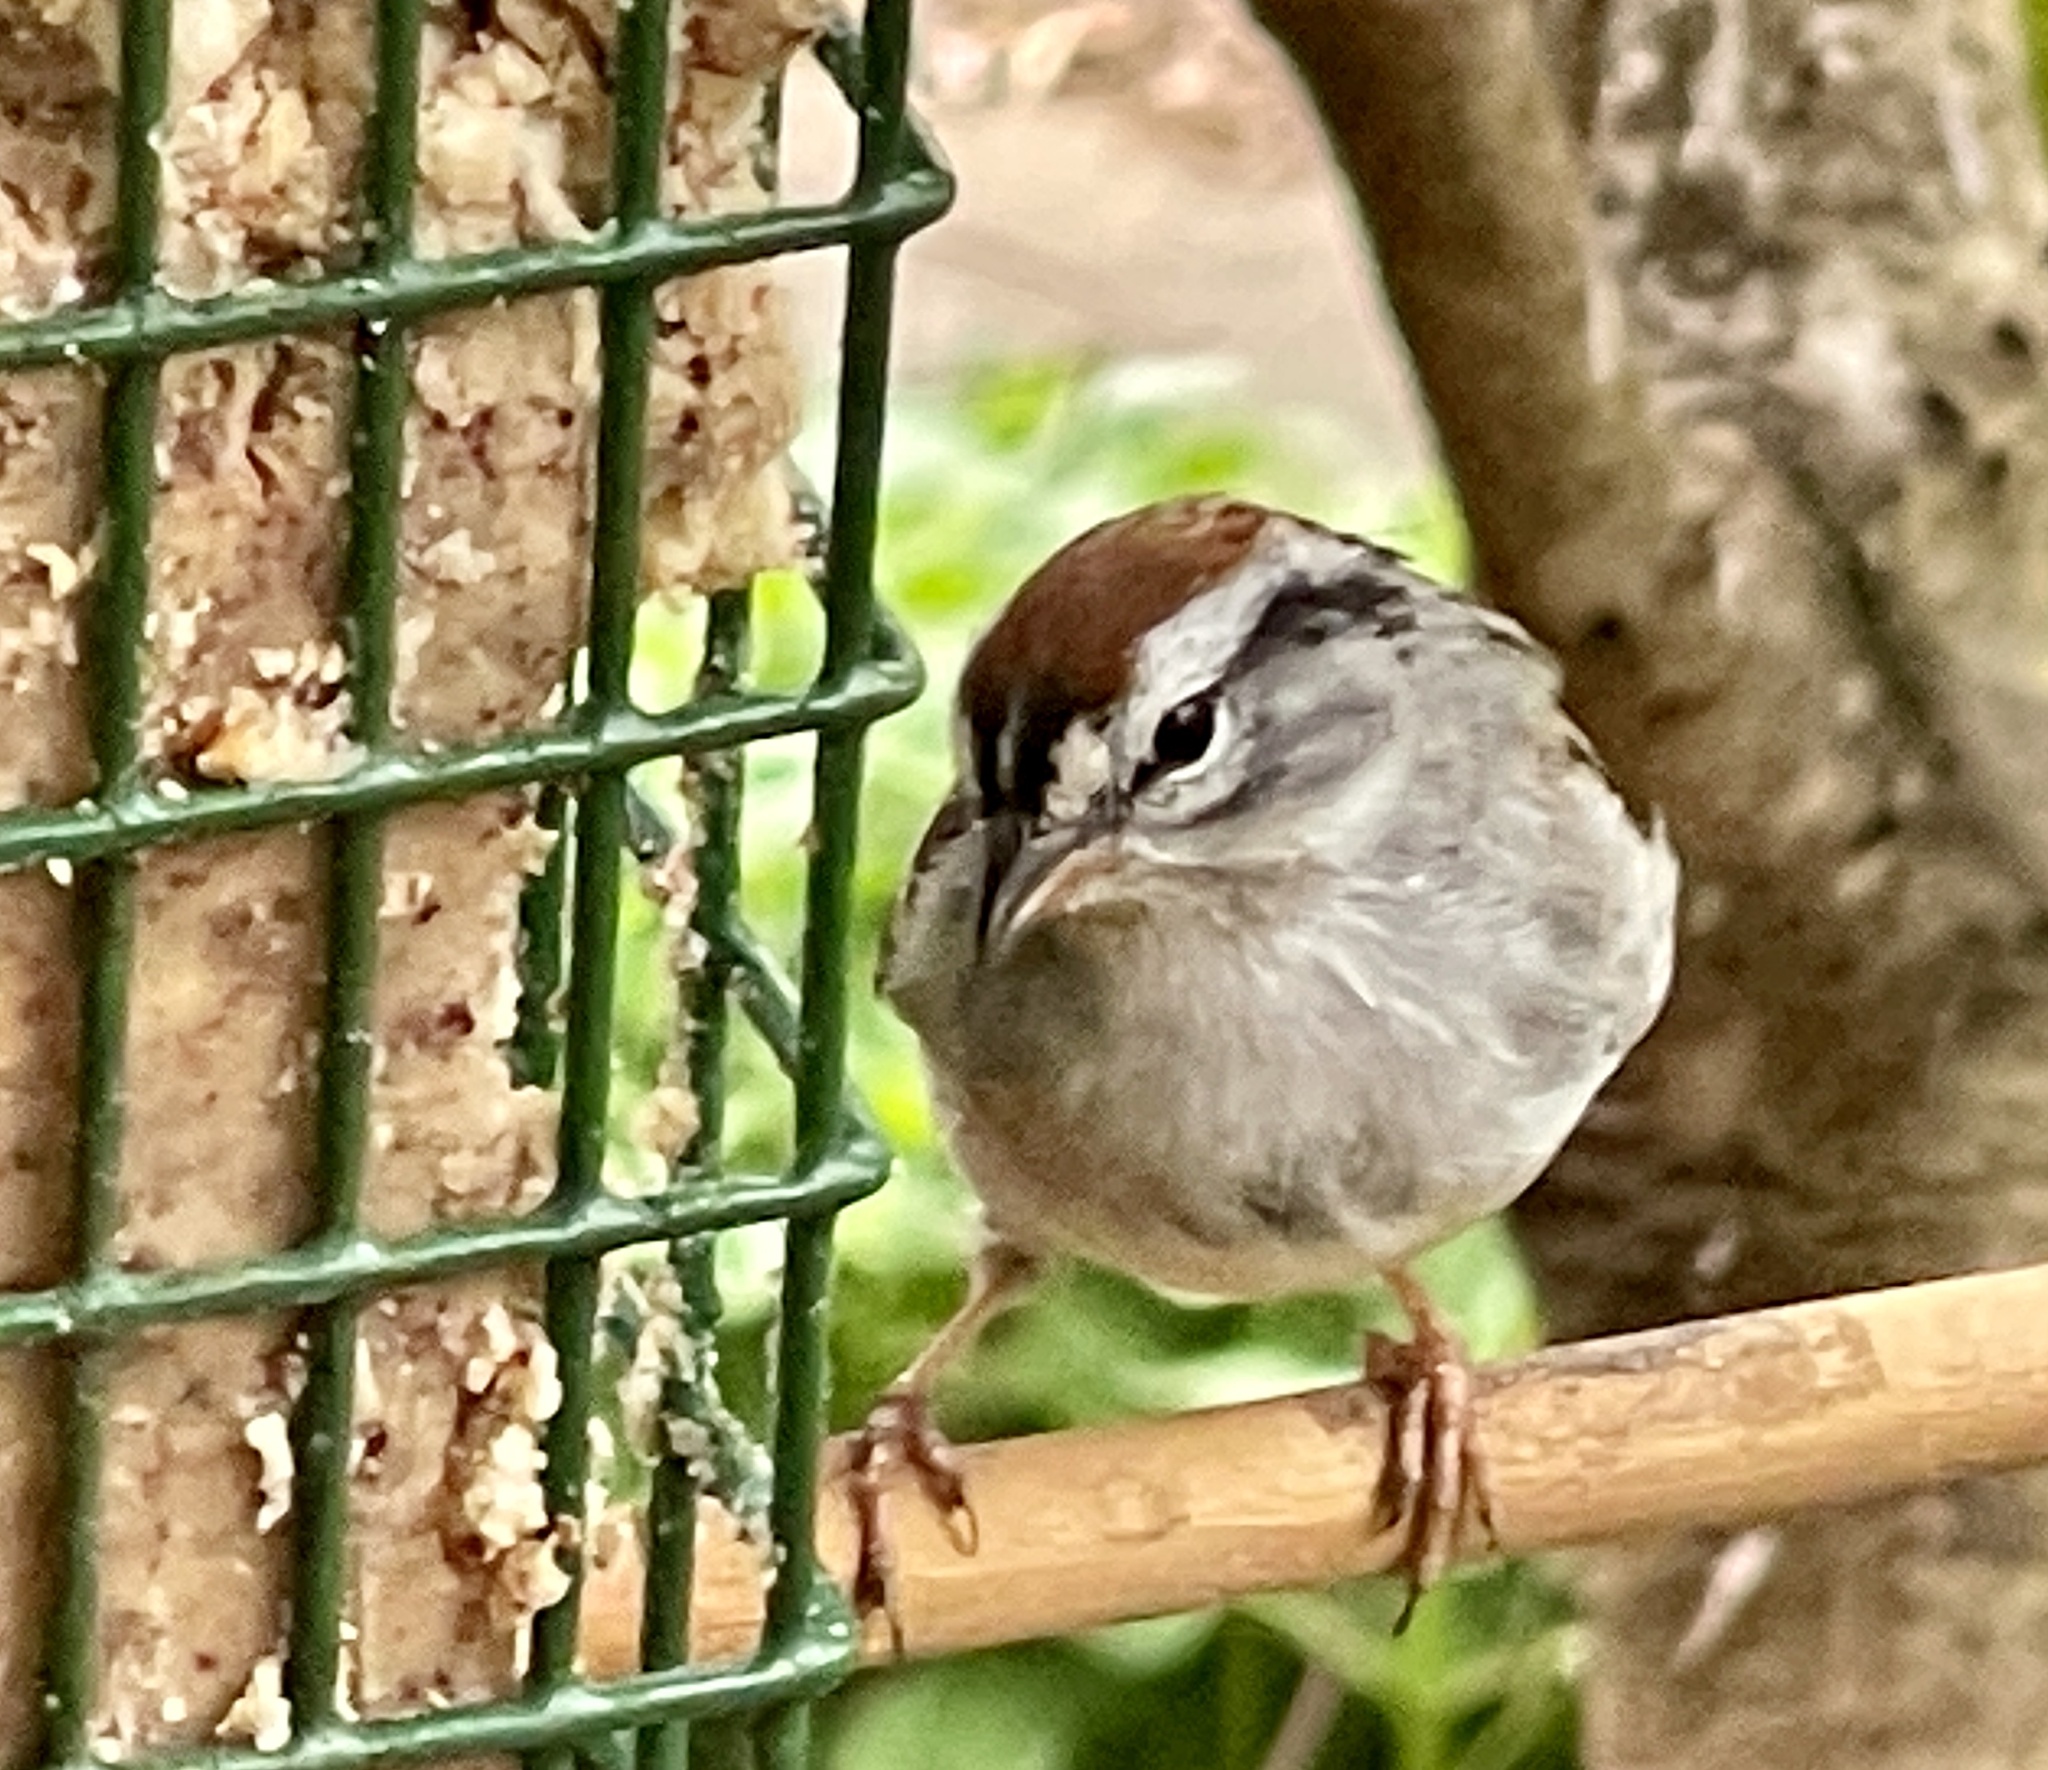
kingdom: Animalia
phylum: Chordata
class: Aves
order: Passeriformes
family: Passerellidae
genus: Spizella
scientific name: Spizella passerina
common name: Chipping sparrow
